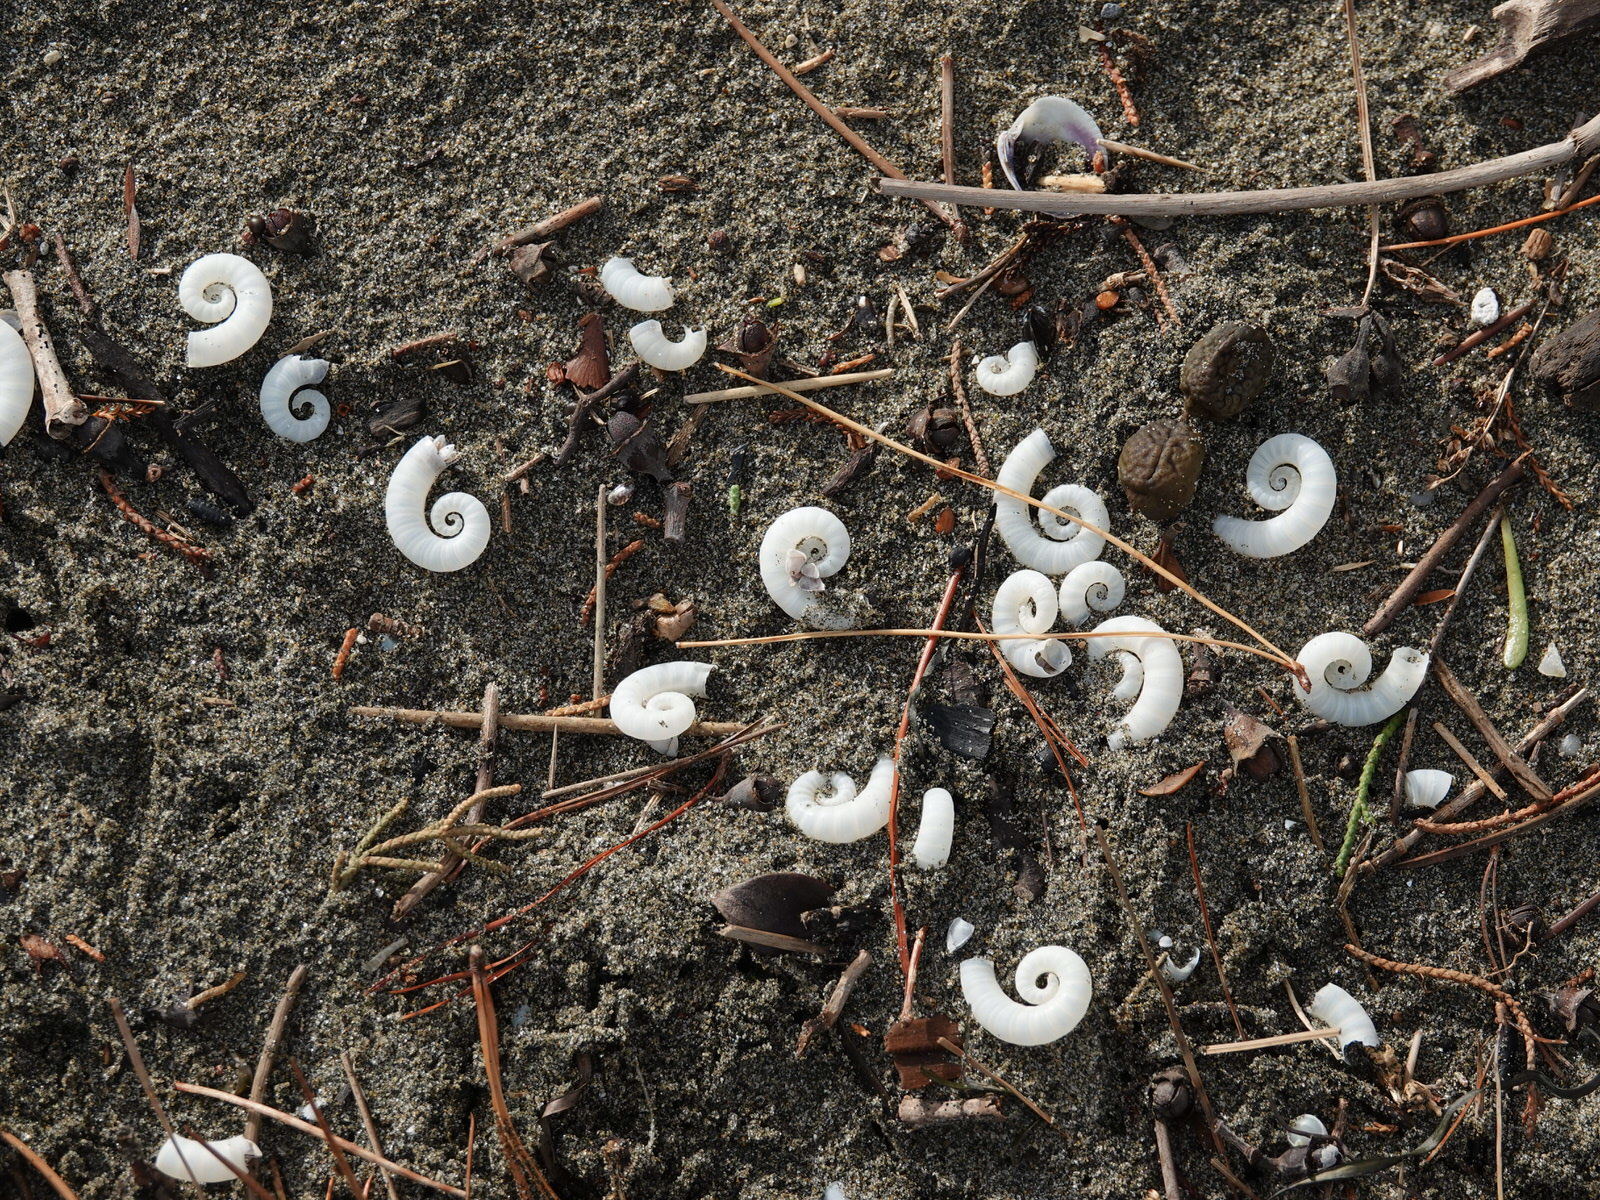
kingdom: Animalia
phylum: Mollusca
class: Cephalopoda
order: Spirulida
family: Spirulidae
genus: Spirula
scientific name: Spirula spirula
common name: Ram's horn squid
